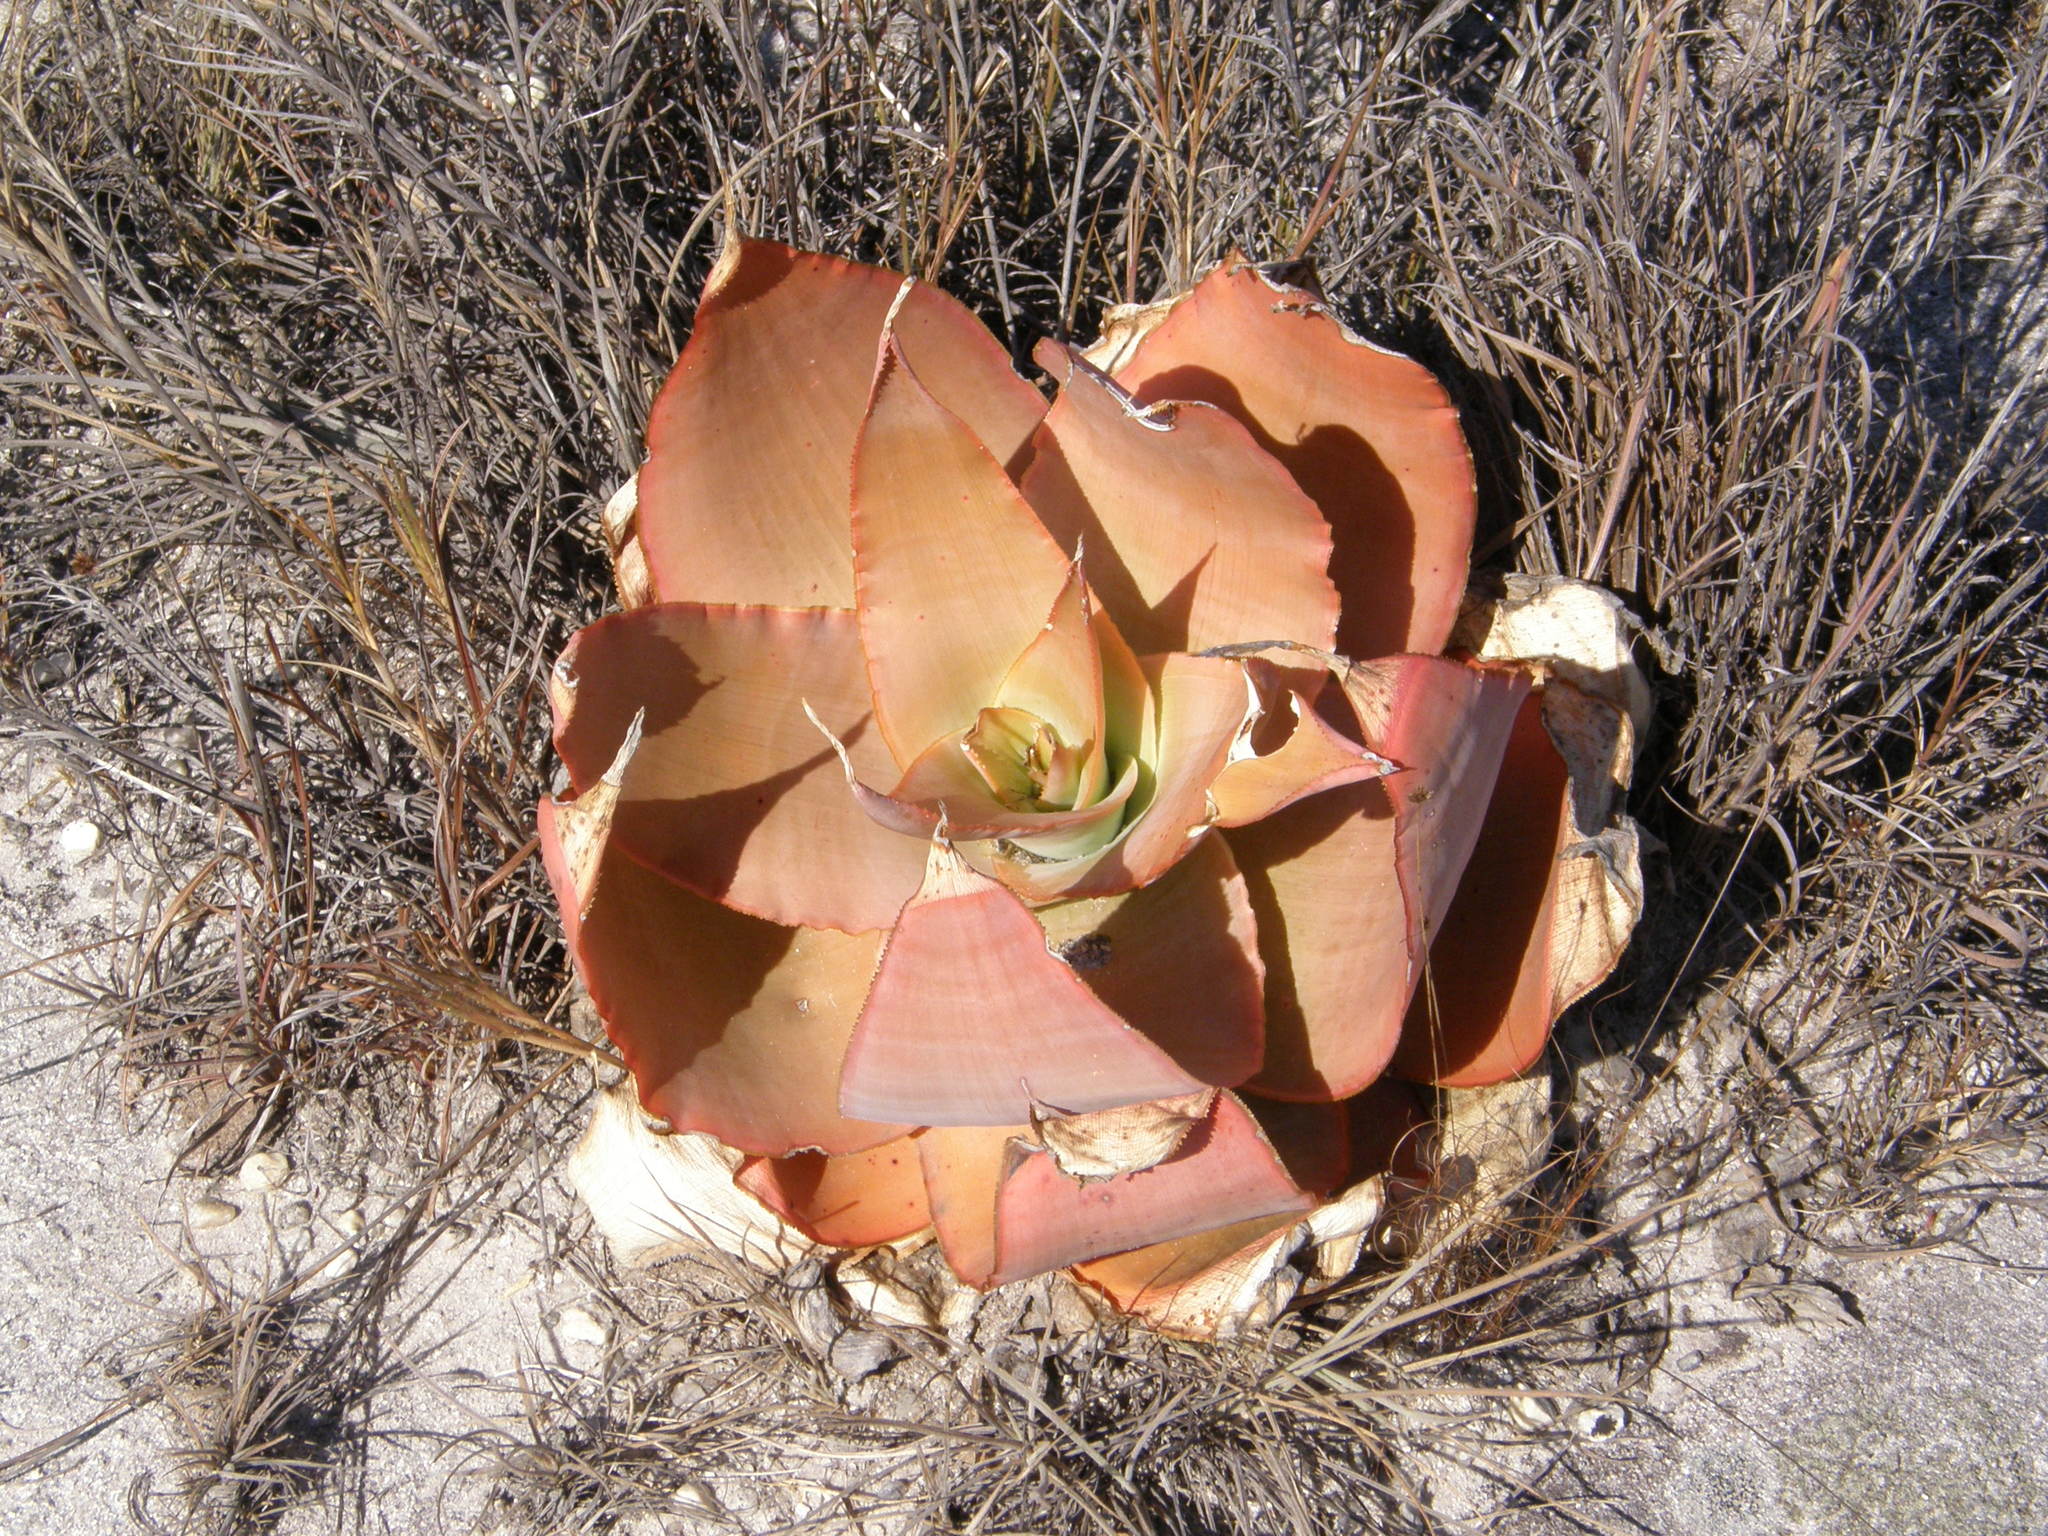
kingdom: Plantae
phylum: Tracheophyta
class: Liliopsida
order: Asparagales
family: Asphodelaceae
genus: Aloe
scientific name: Aloe imalotensis
